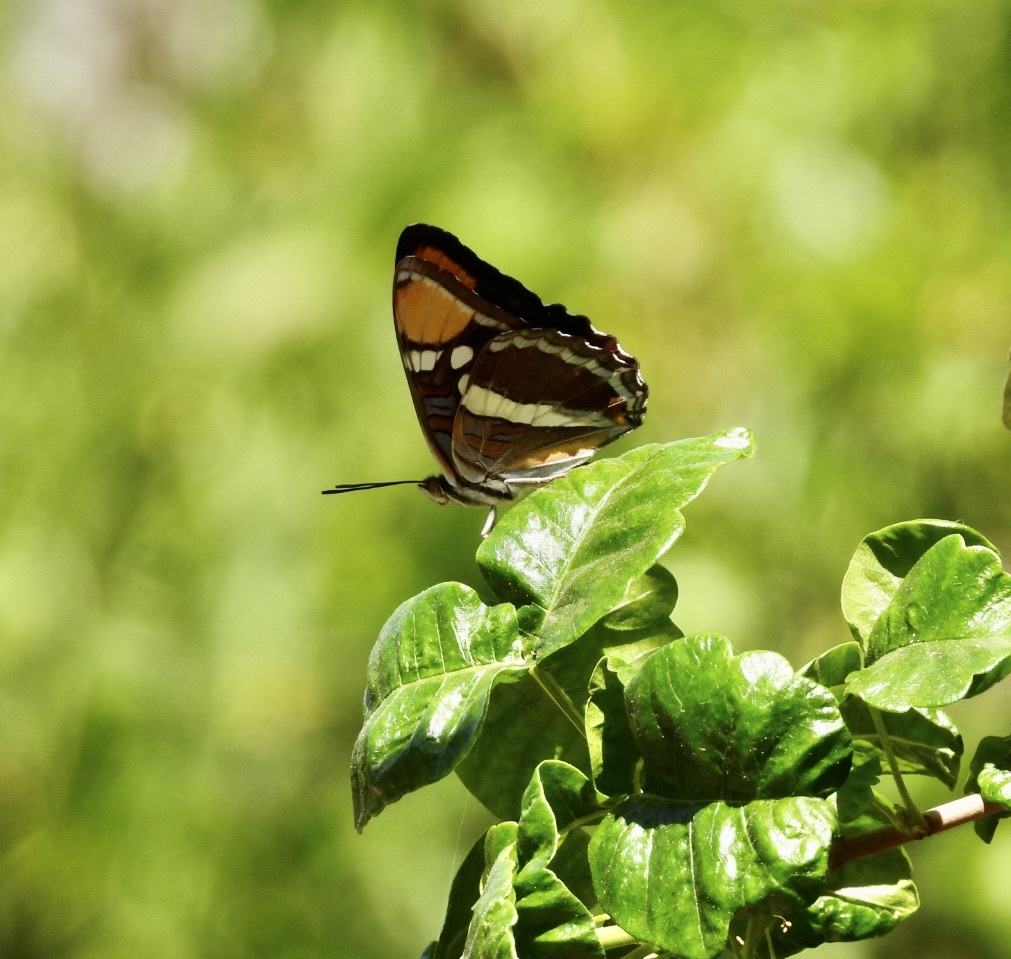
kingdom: Animalia
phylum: Arthropoda
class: Insecta
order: Lepidoptera
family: Nymphalidae
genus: Limenitis
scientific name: Limenitis bredowii
